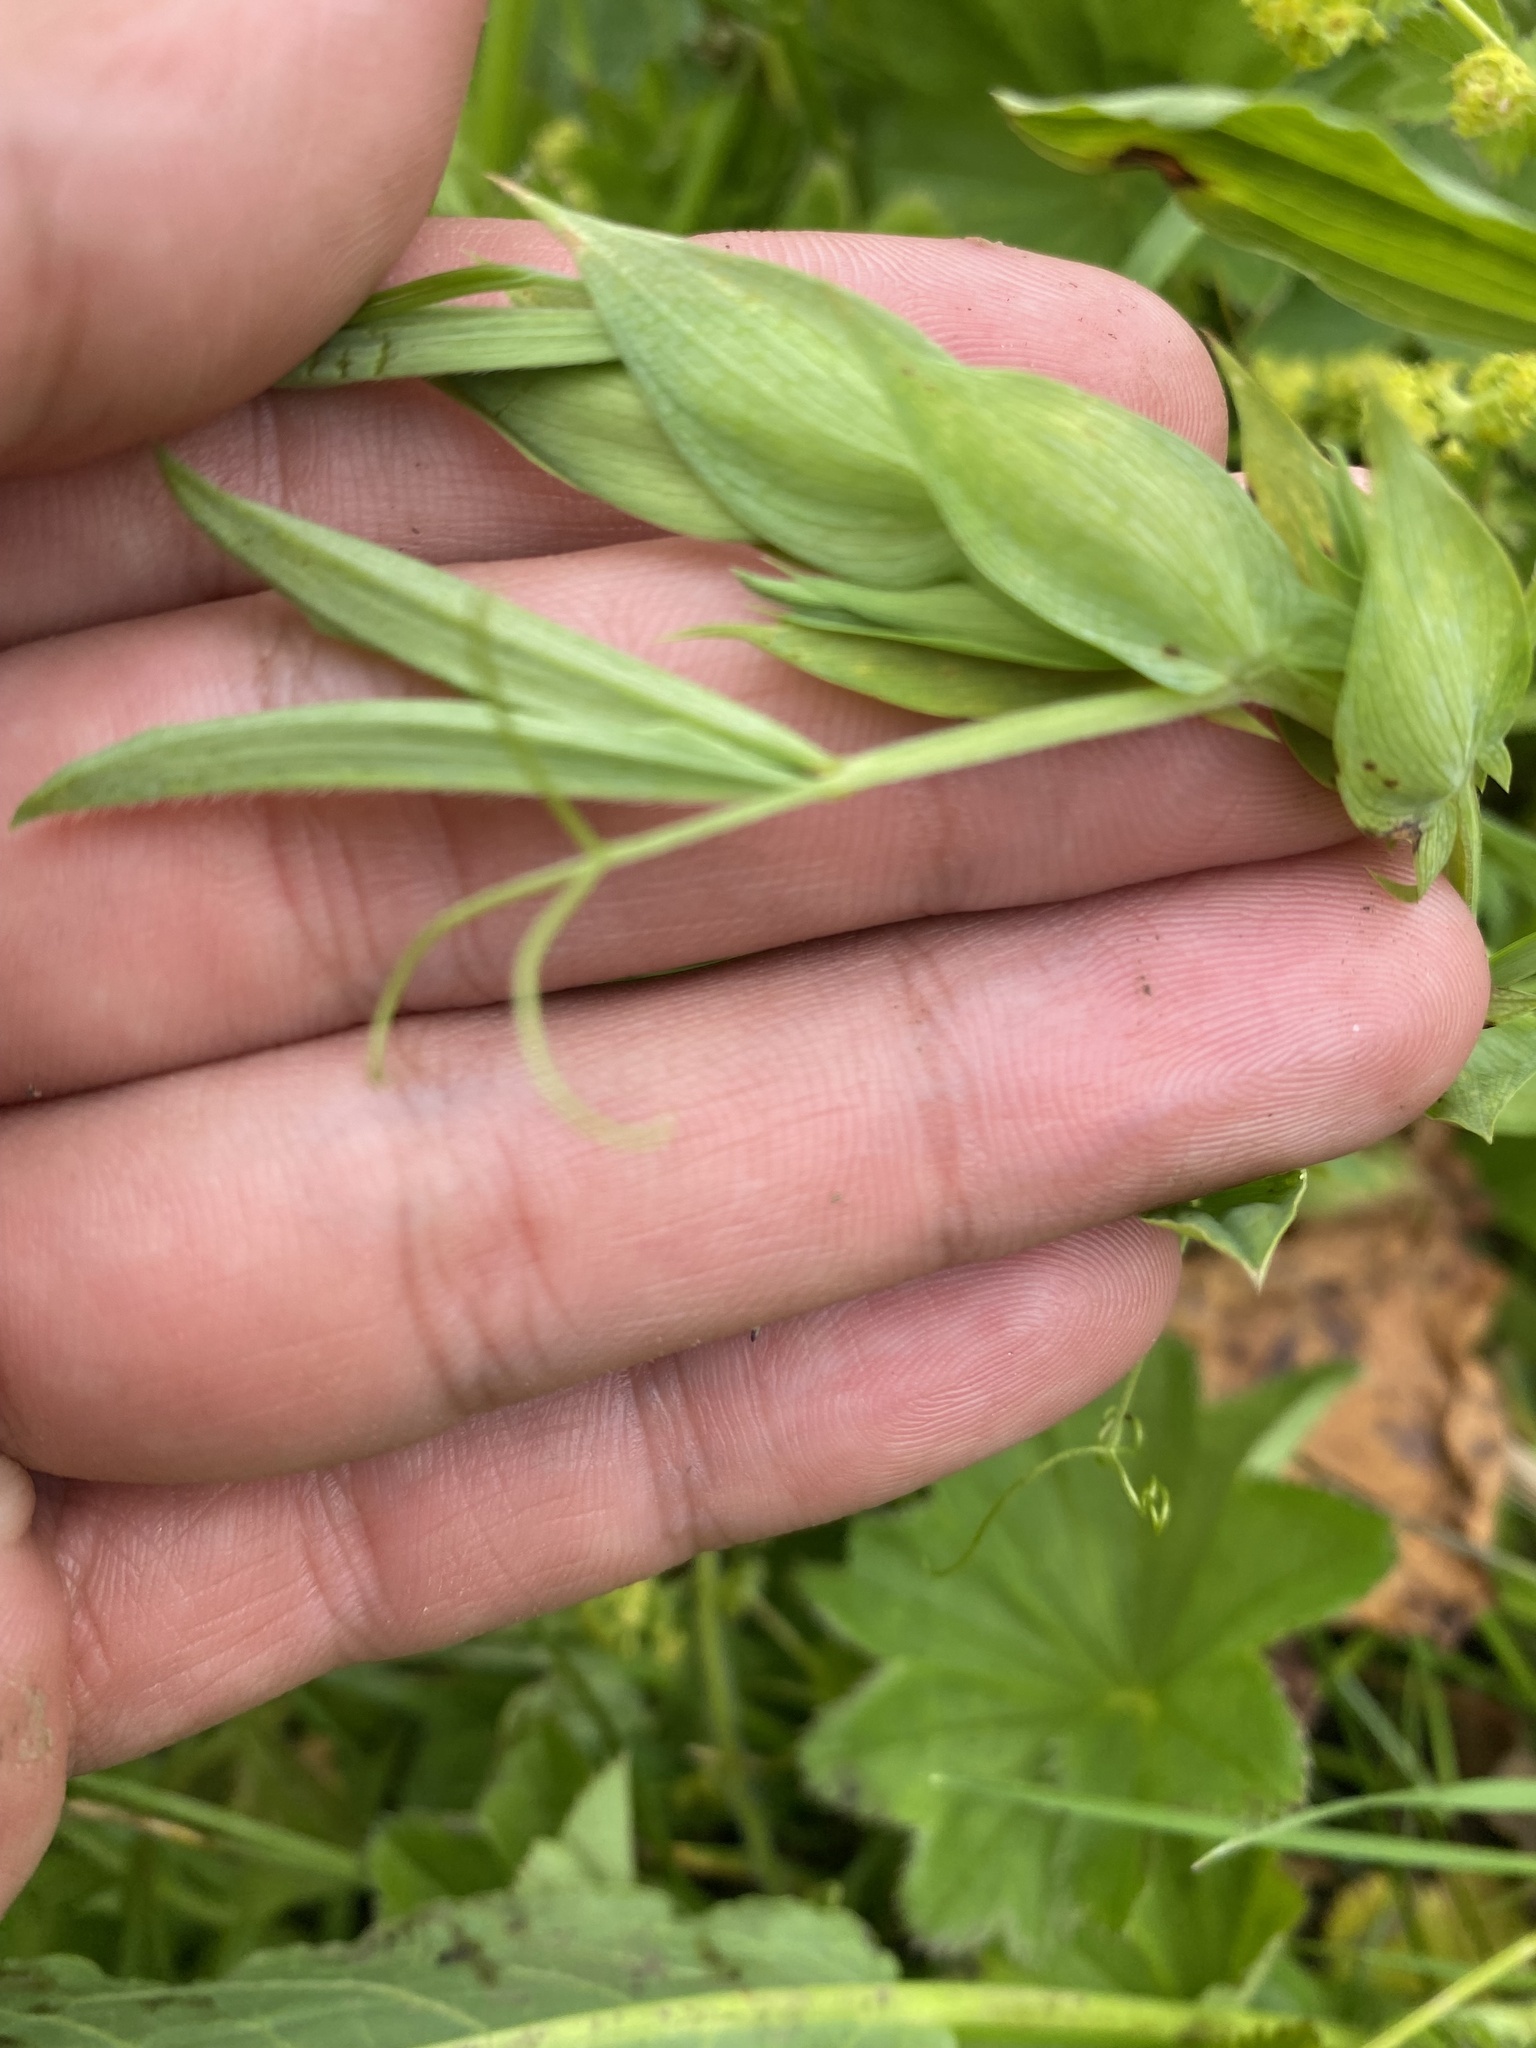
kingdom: Plantae
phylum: Tracheophyta
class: Magnoliopsida
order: Fabales
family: Fabaceae
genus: Lathyrus
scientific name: Lathyrus pratensis
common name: Meadow vetchling
